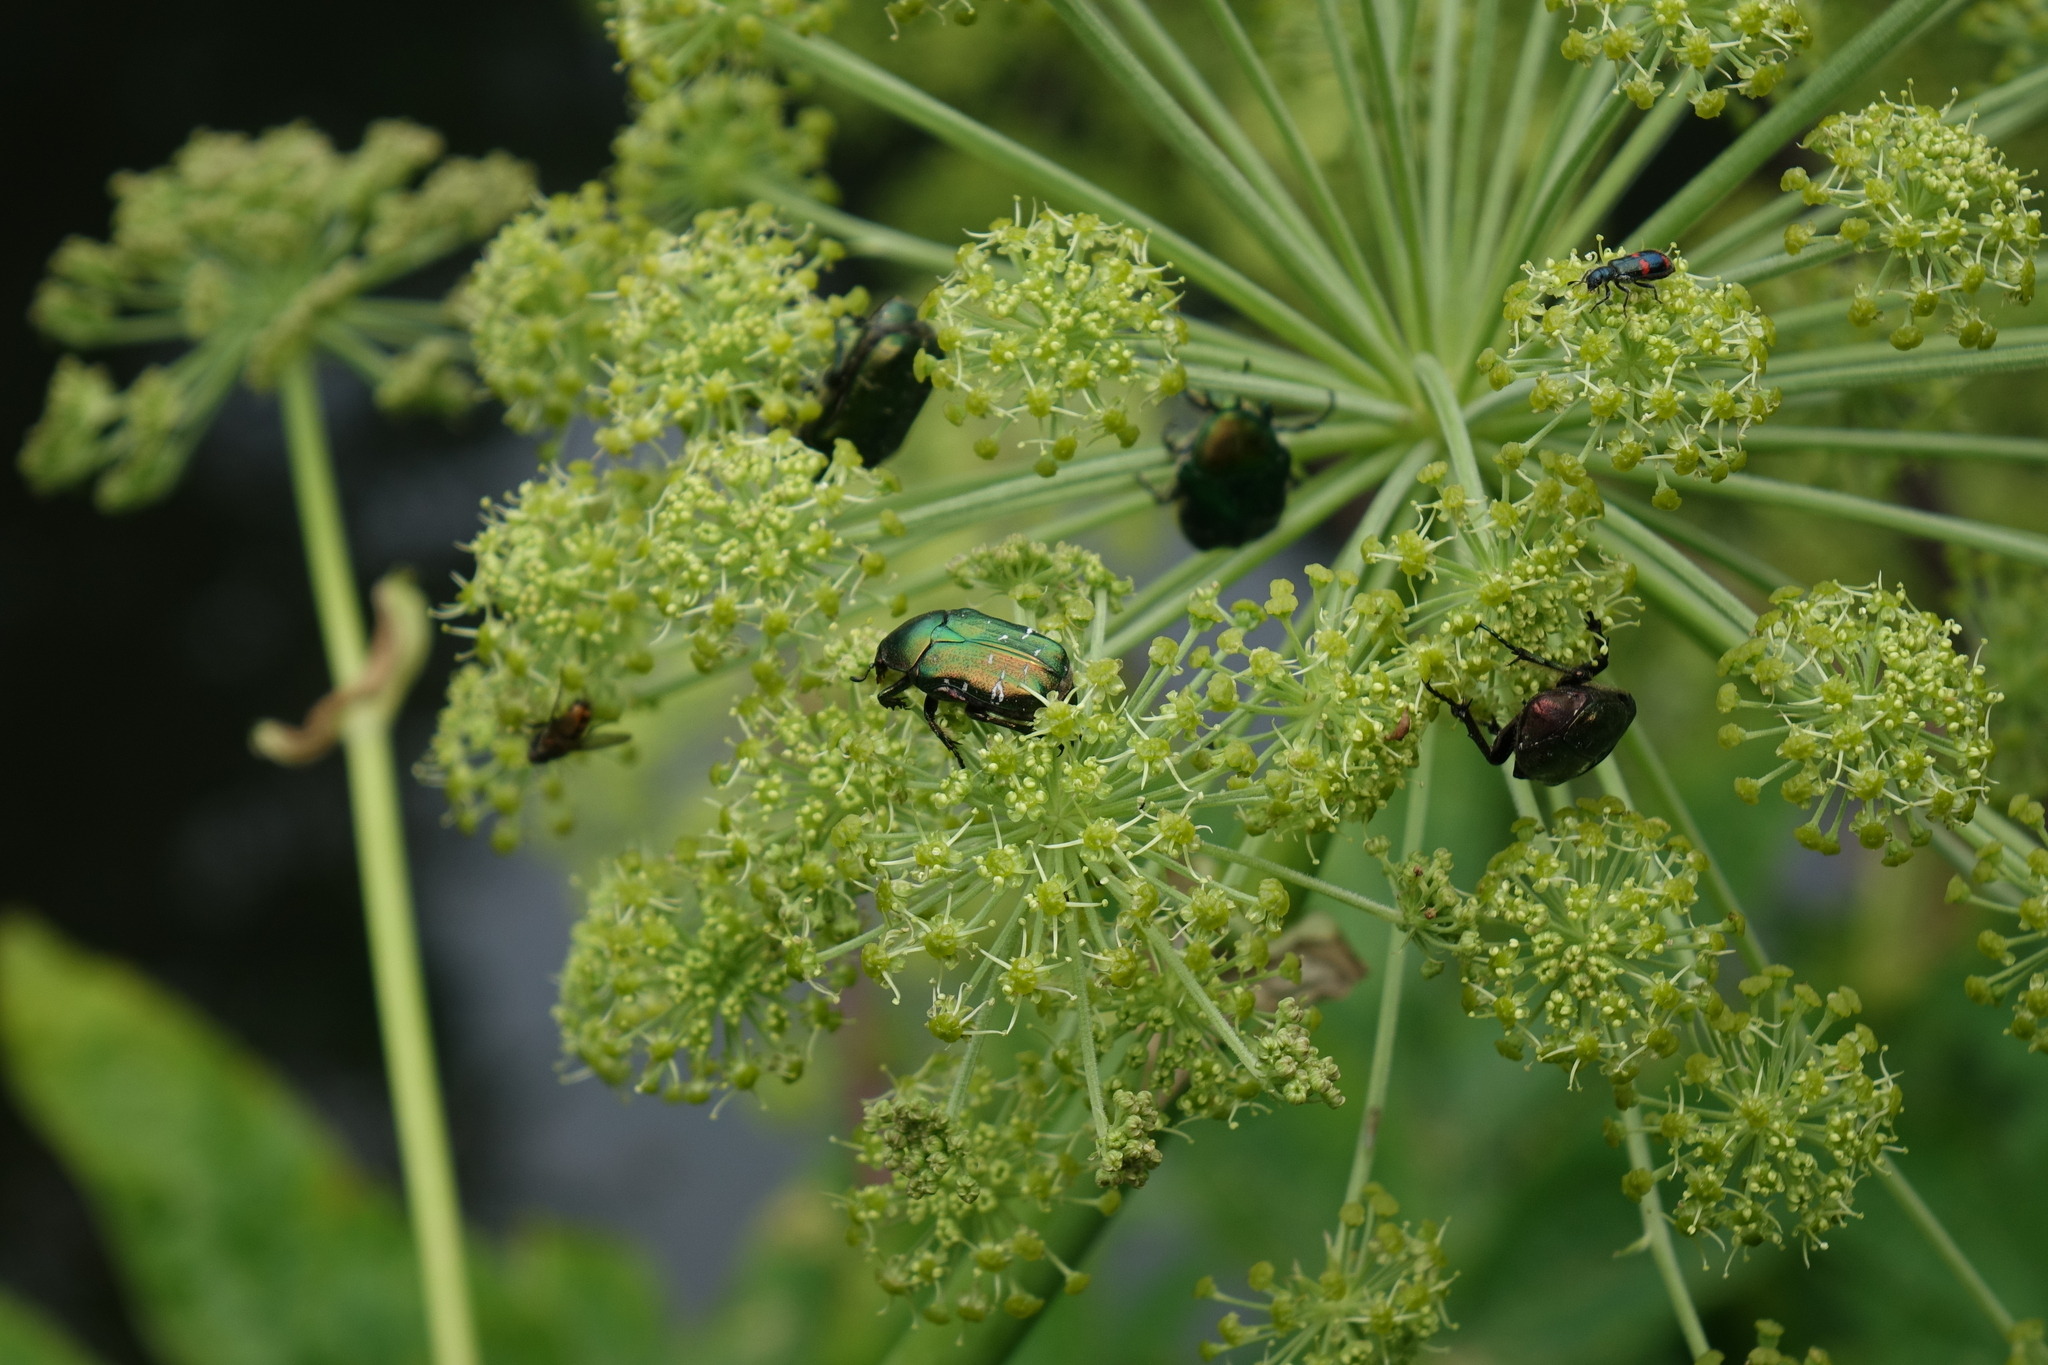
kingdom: Plantae
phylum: Tracheophyta
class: Magnoliopsida
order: Apiales
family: Apiaceae
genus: Angelica
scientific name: Angelica decurrens
